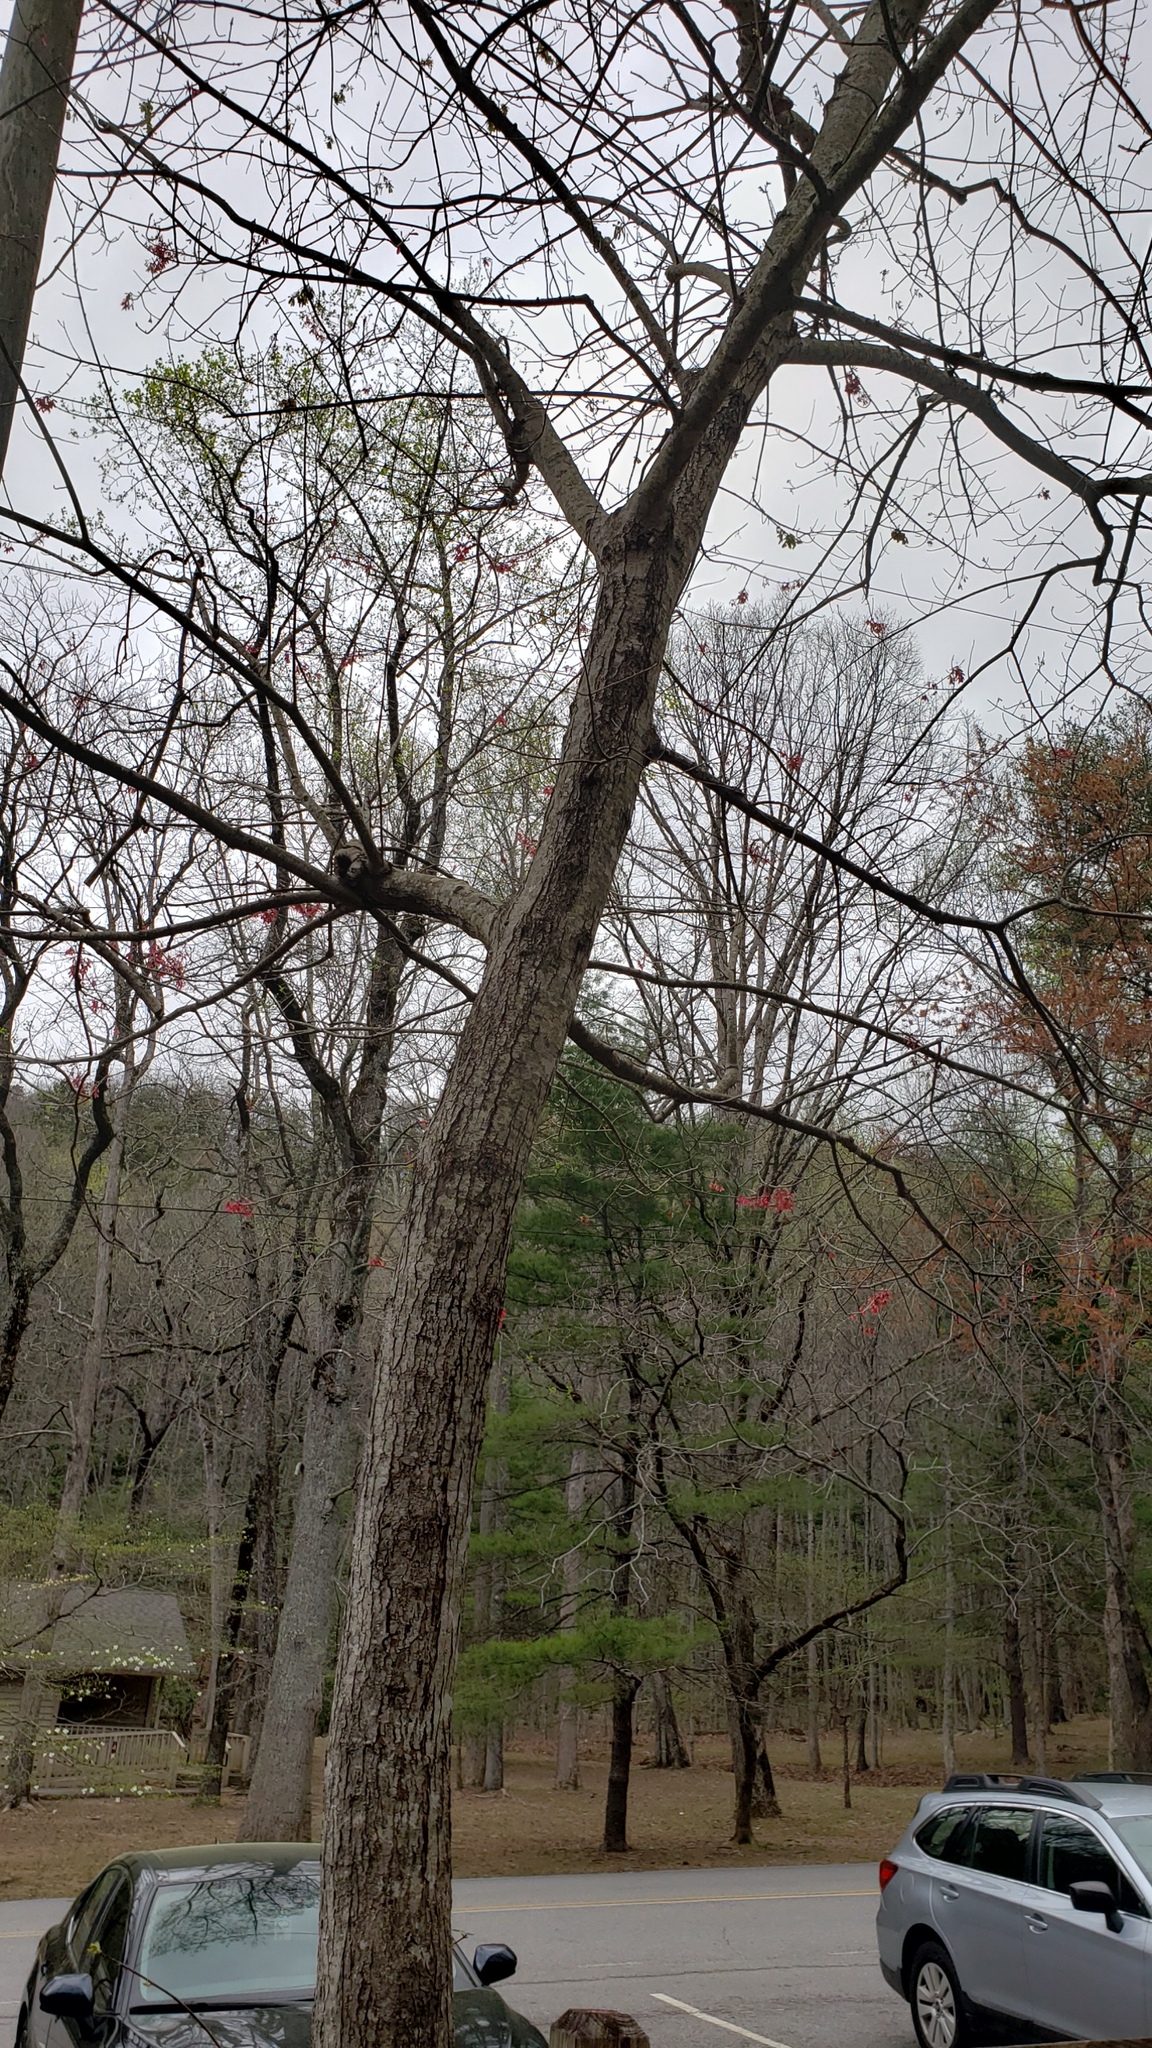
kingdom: Plantae
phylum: Tracheophyta
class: Magnoliopsida
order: Sapindales
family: Sapindaceae
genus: Acer
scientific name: Acer rubrum
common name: Red maple
